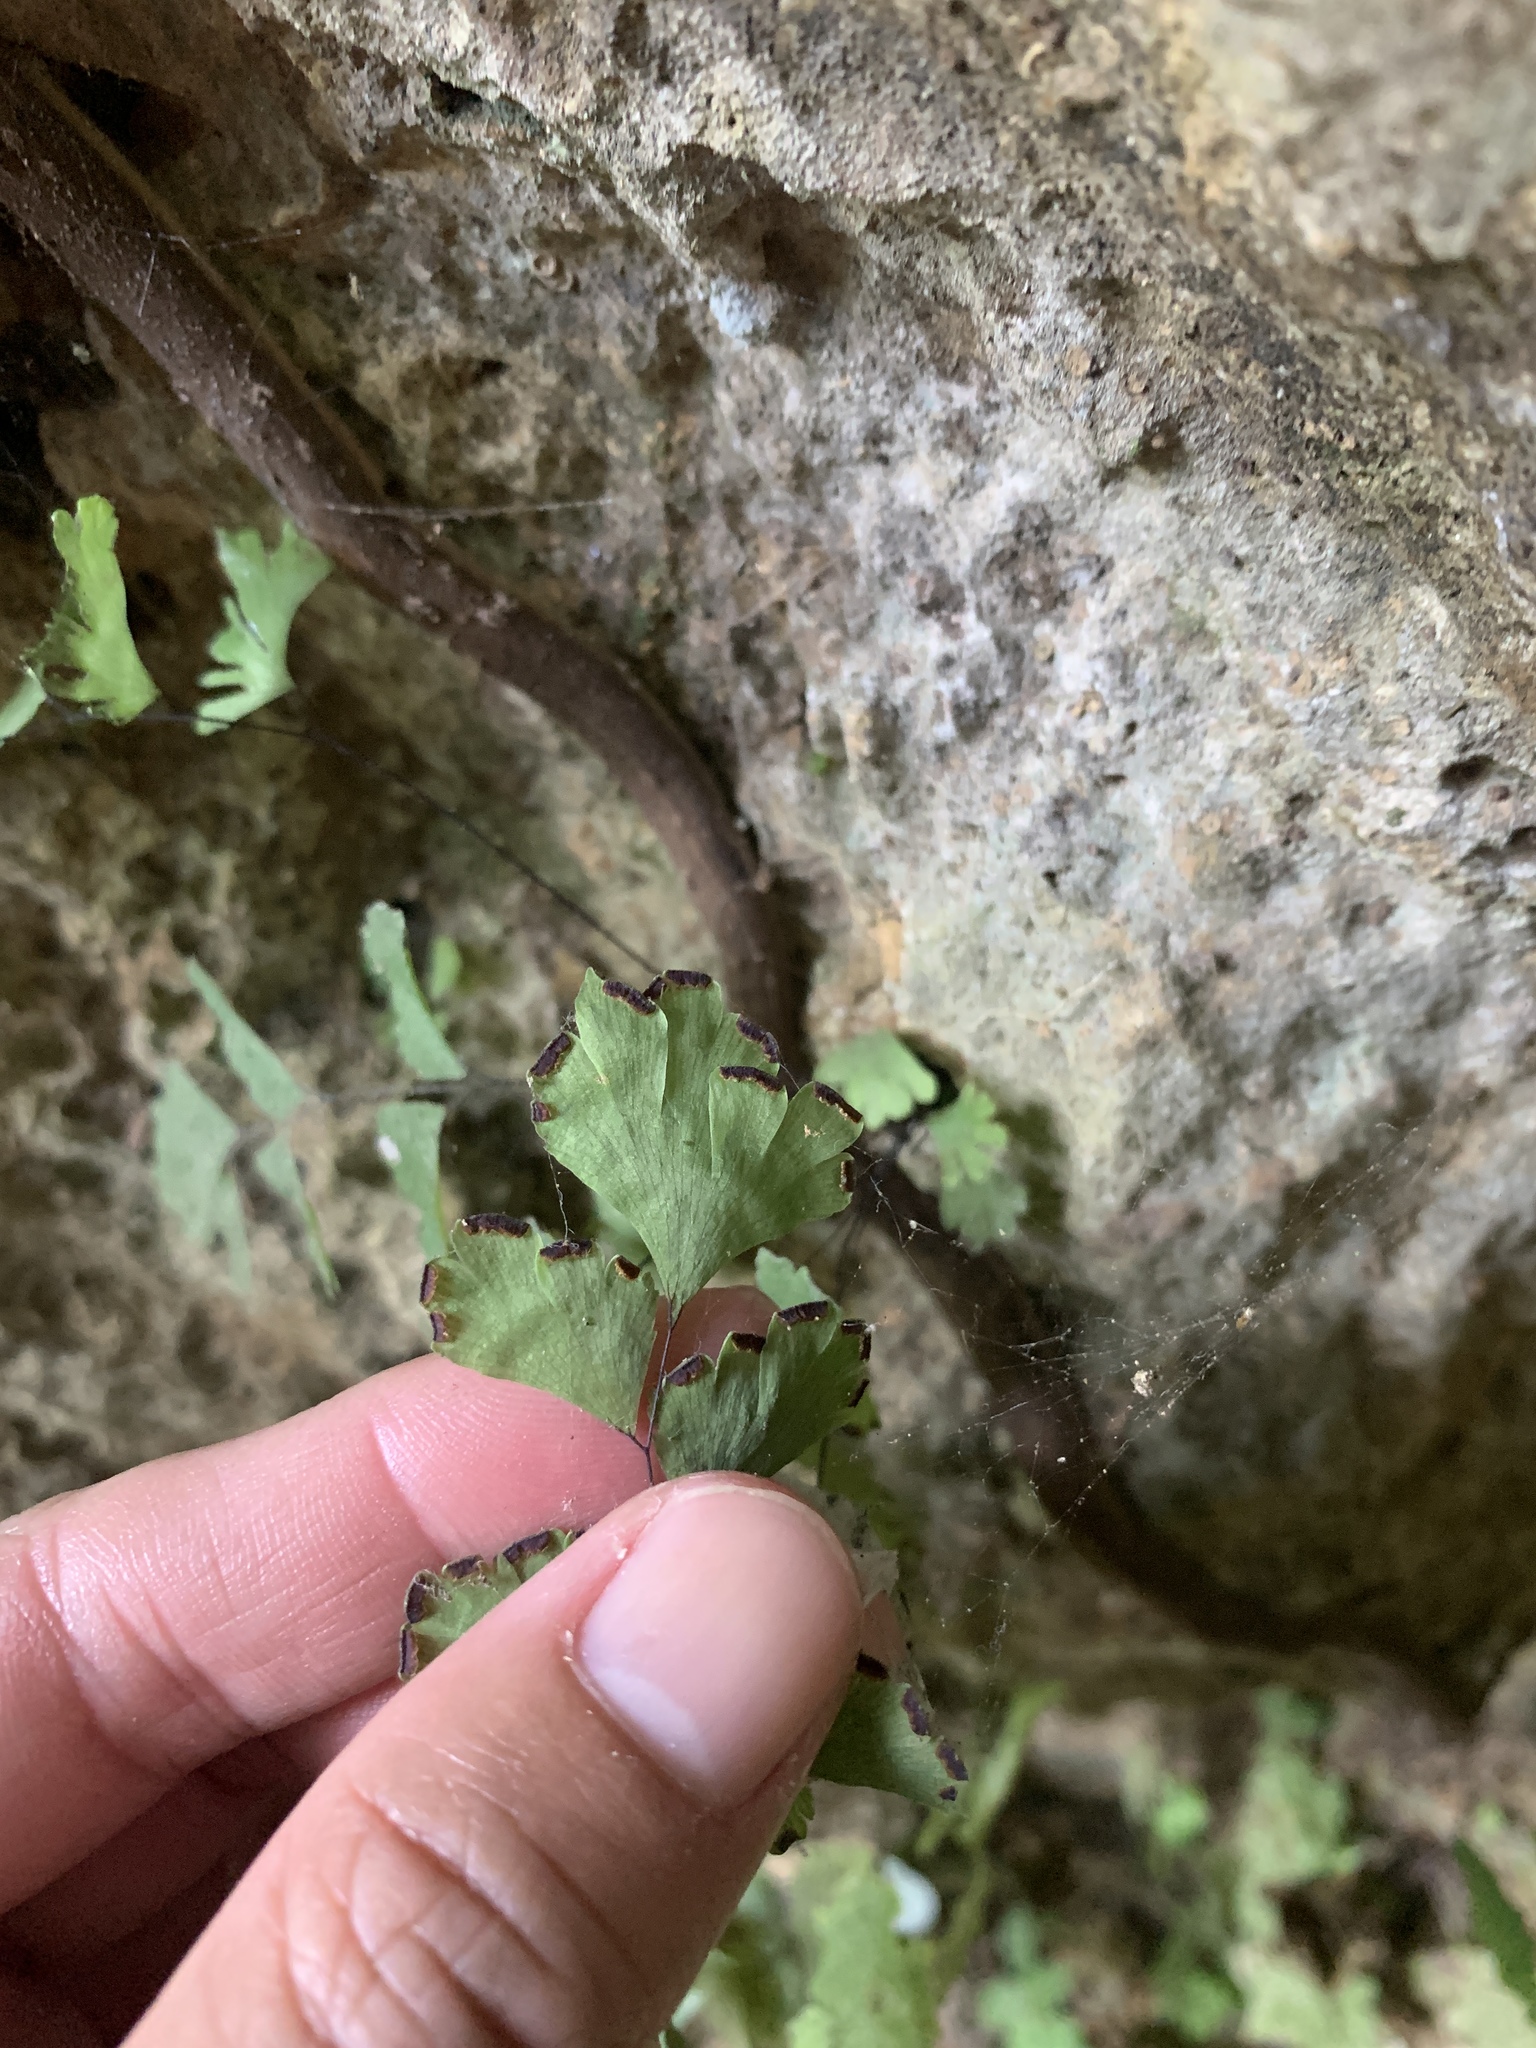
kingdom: Plantae
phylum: Tracheophyta
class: Polypodiopsida
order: Polypodiales
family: Pteridaceae
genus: Adiantum
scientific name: Adiantum capillus-veneris
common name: Maidenhair fern
